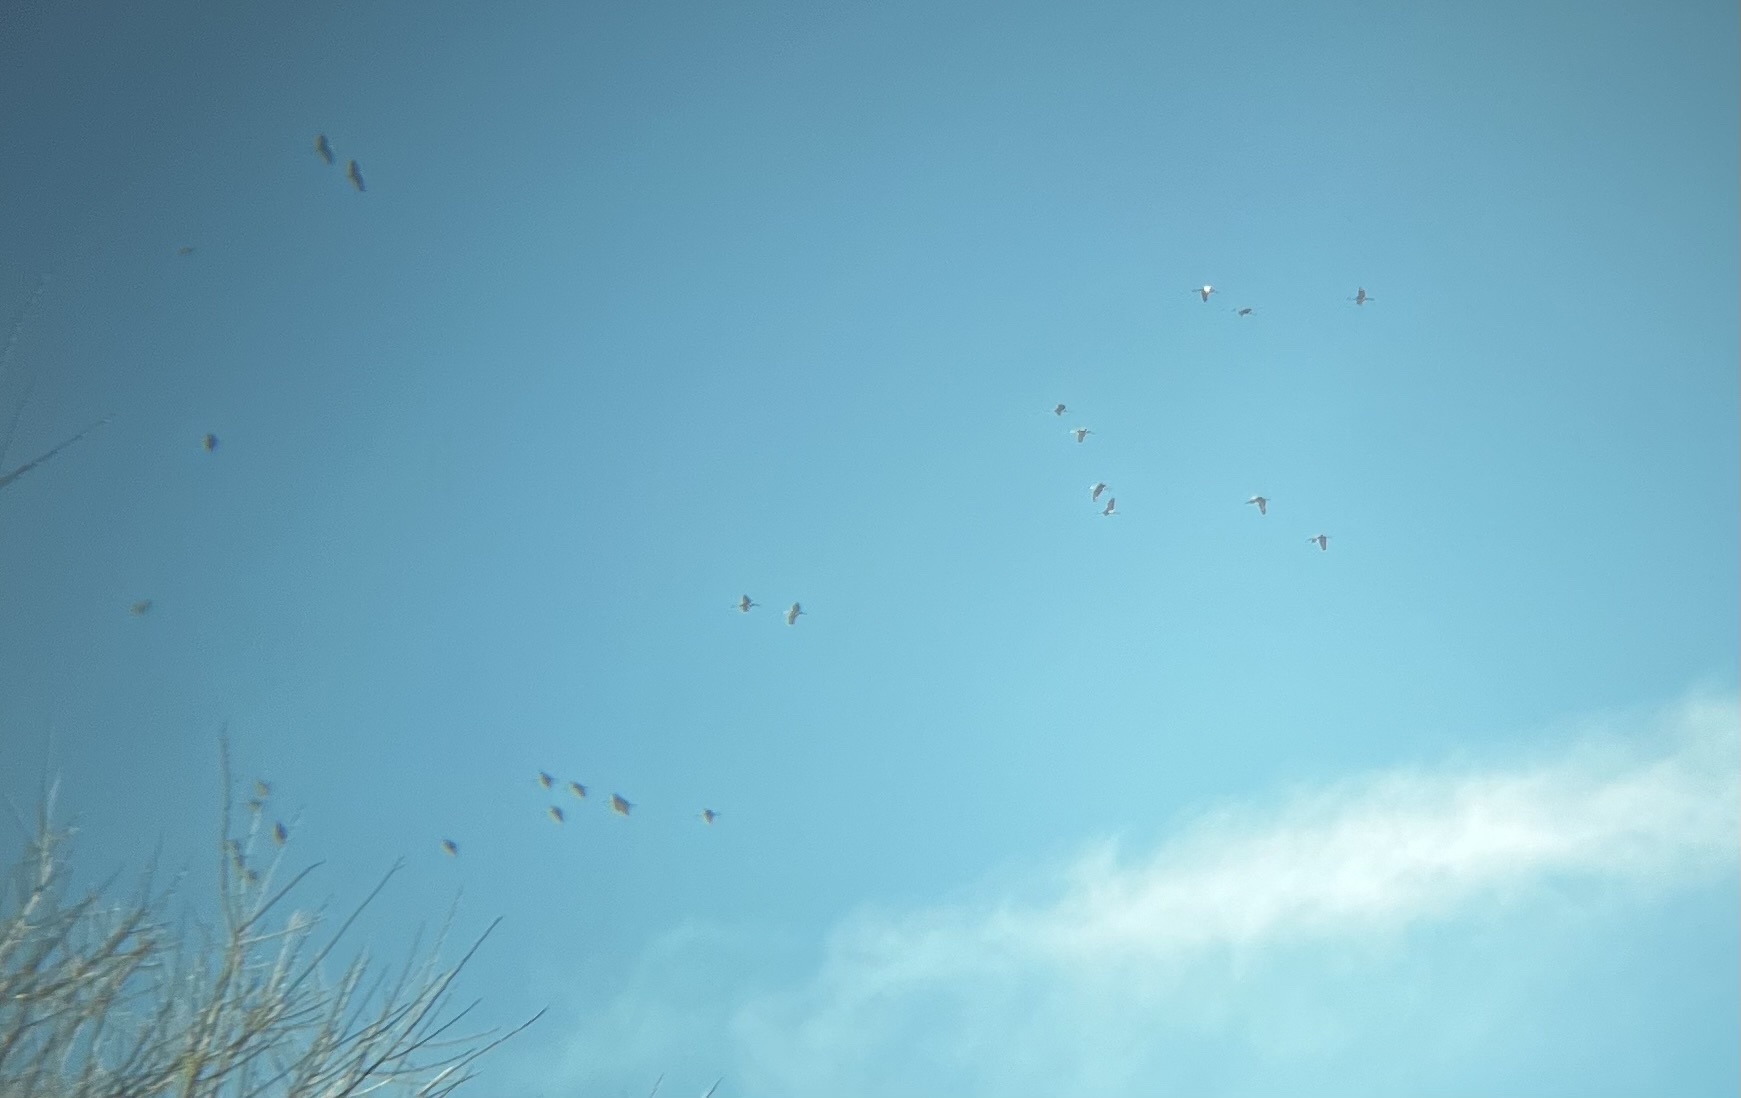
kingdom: Animalia
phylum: Chordata
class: Aves
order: Gruiformes
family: Gruidae
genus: Grus
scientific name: Grus canadensis
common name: Sandhill crane
